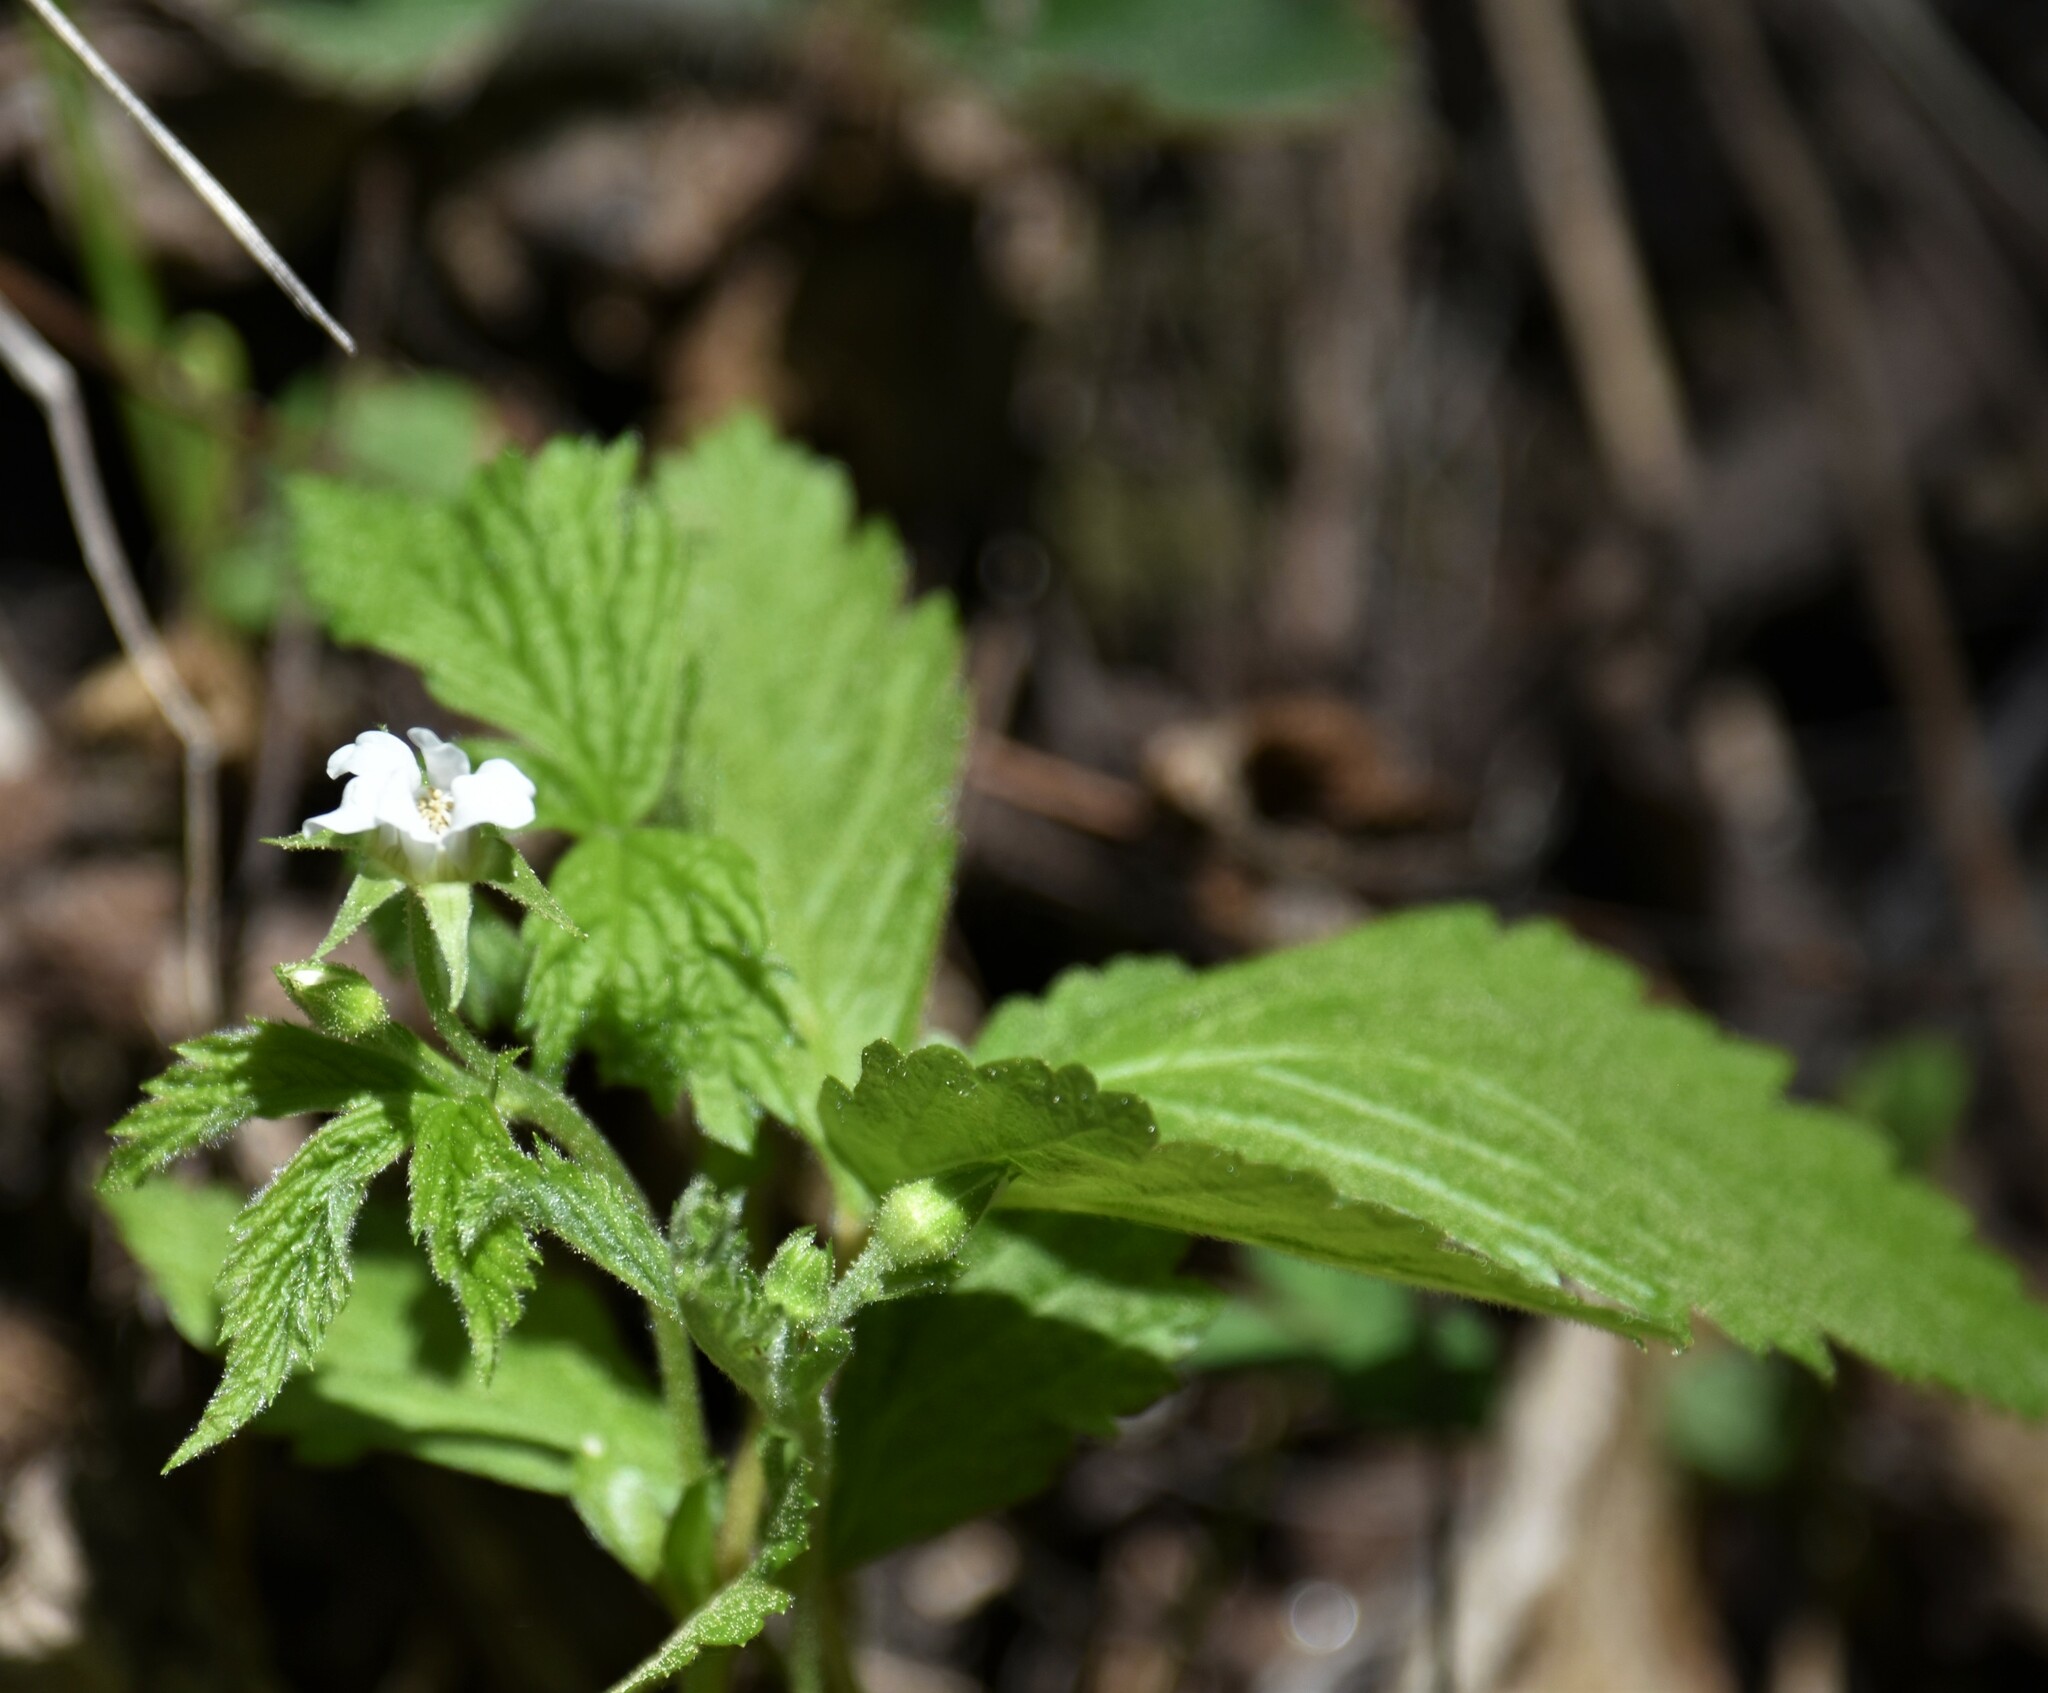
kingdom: Plantae
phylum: Tracheophyta
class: Magnoliopsida
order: Rosales
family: Rosaceae
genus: Rubus
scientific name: Rubus pubescens
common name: Dwarf raspberry
